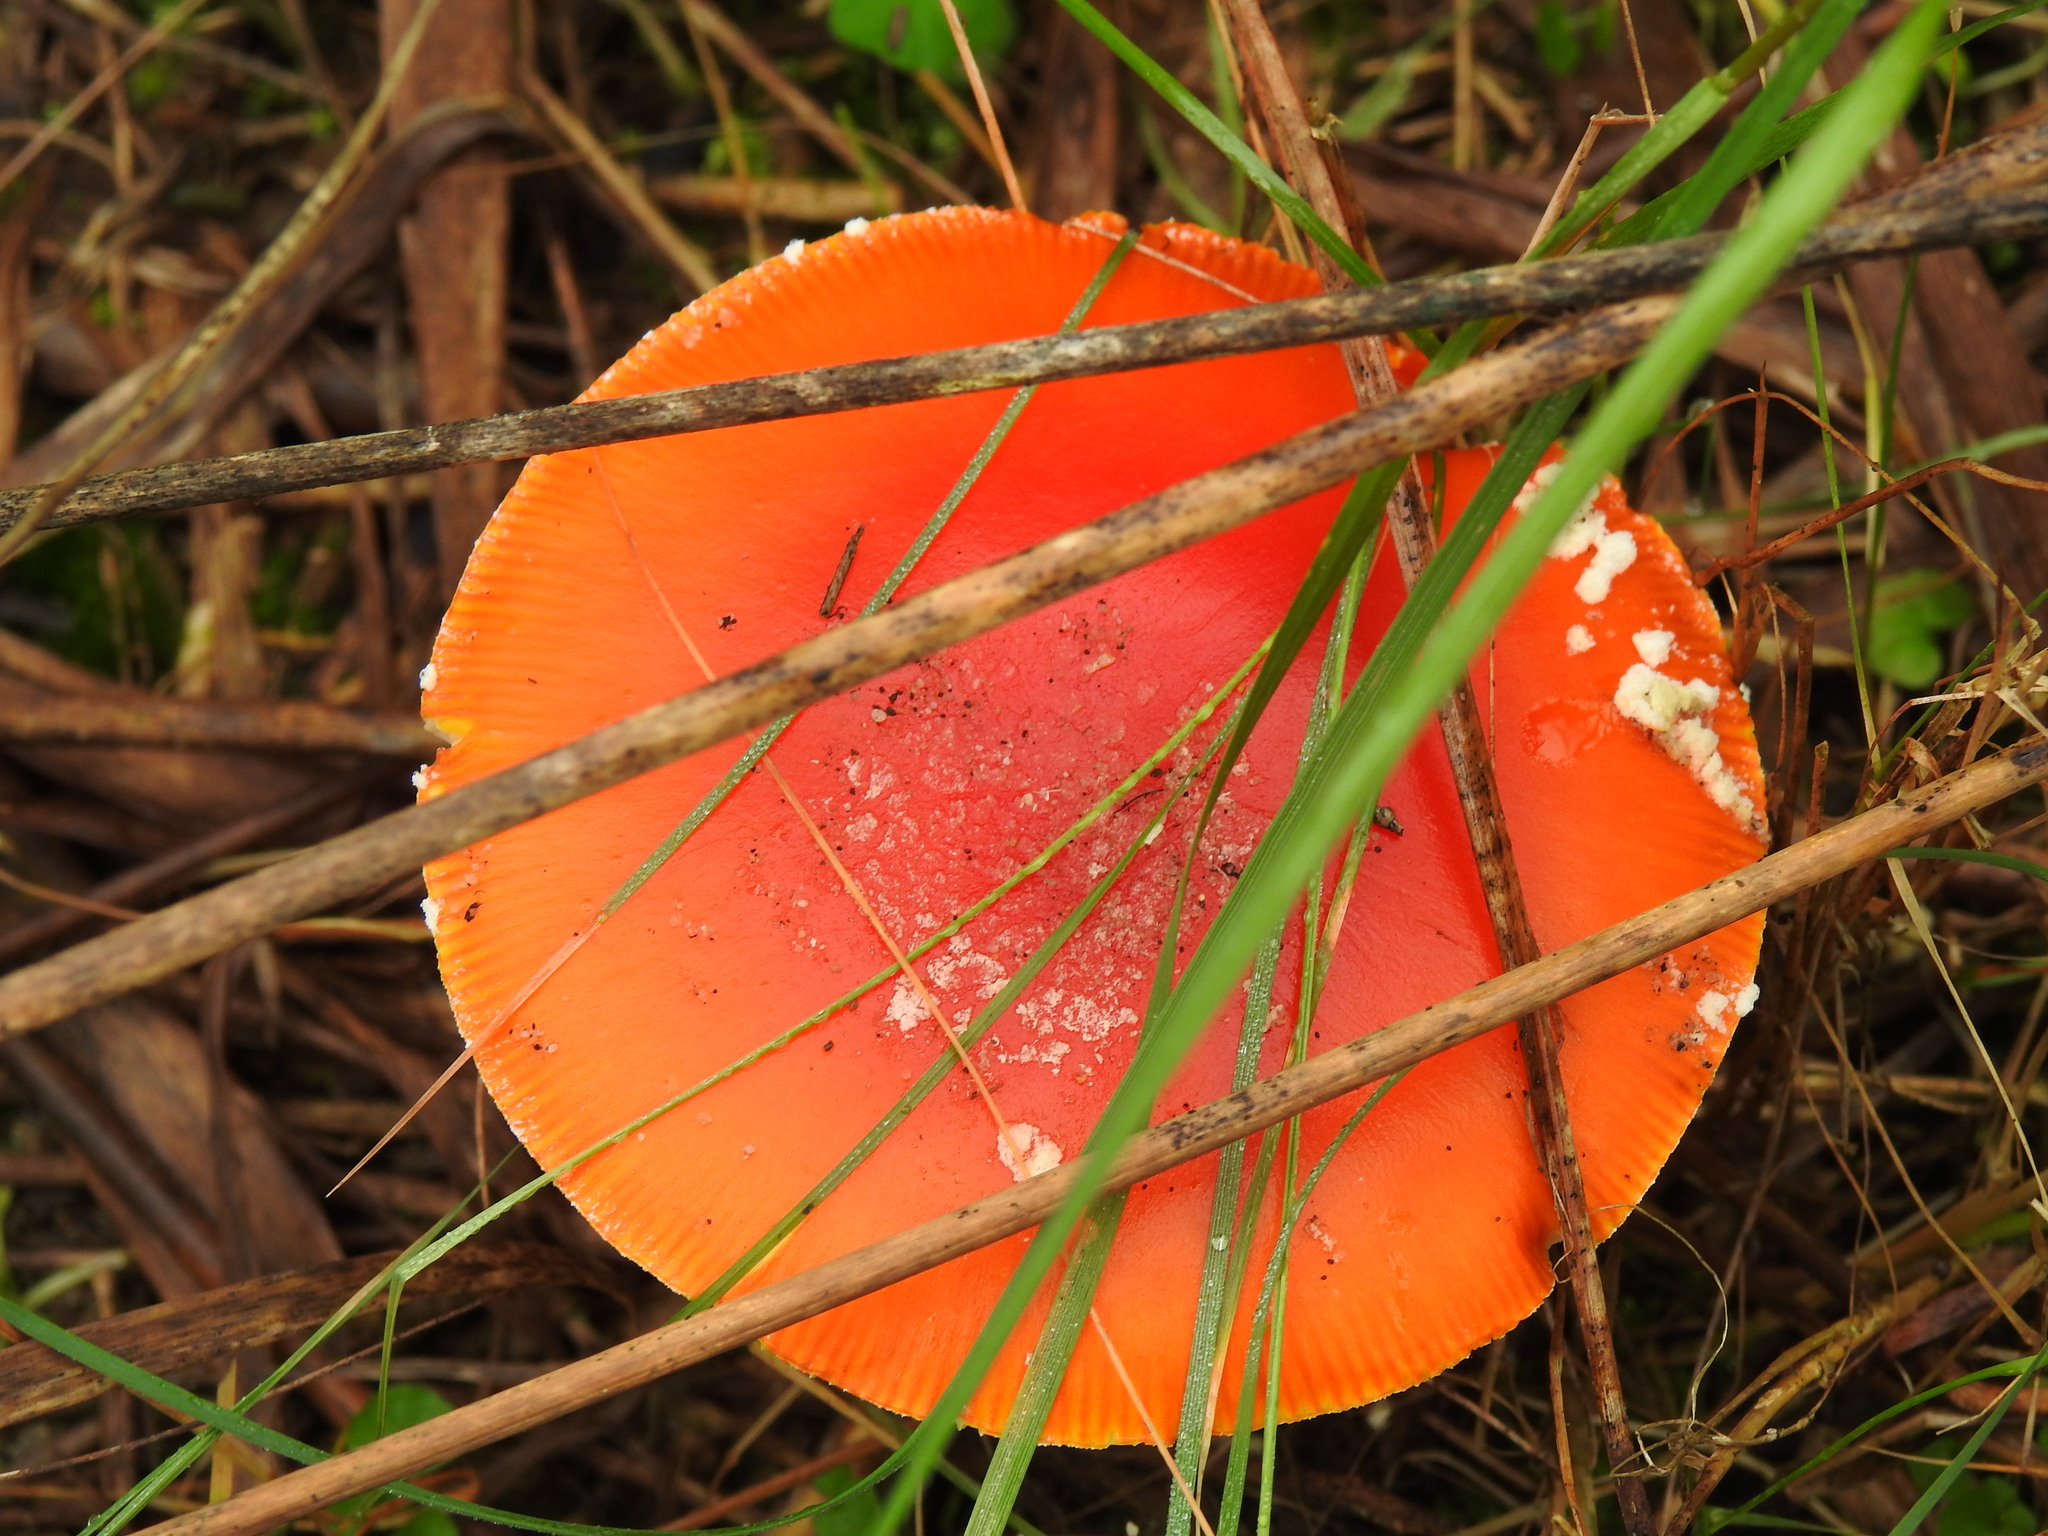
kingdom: Fungi
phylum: Basidiomycota
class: Agaricomycetes
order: Agaricales
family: Amanitaceae
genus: Amanita
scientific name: Amanita muscaria
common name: Fly agaric
